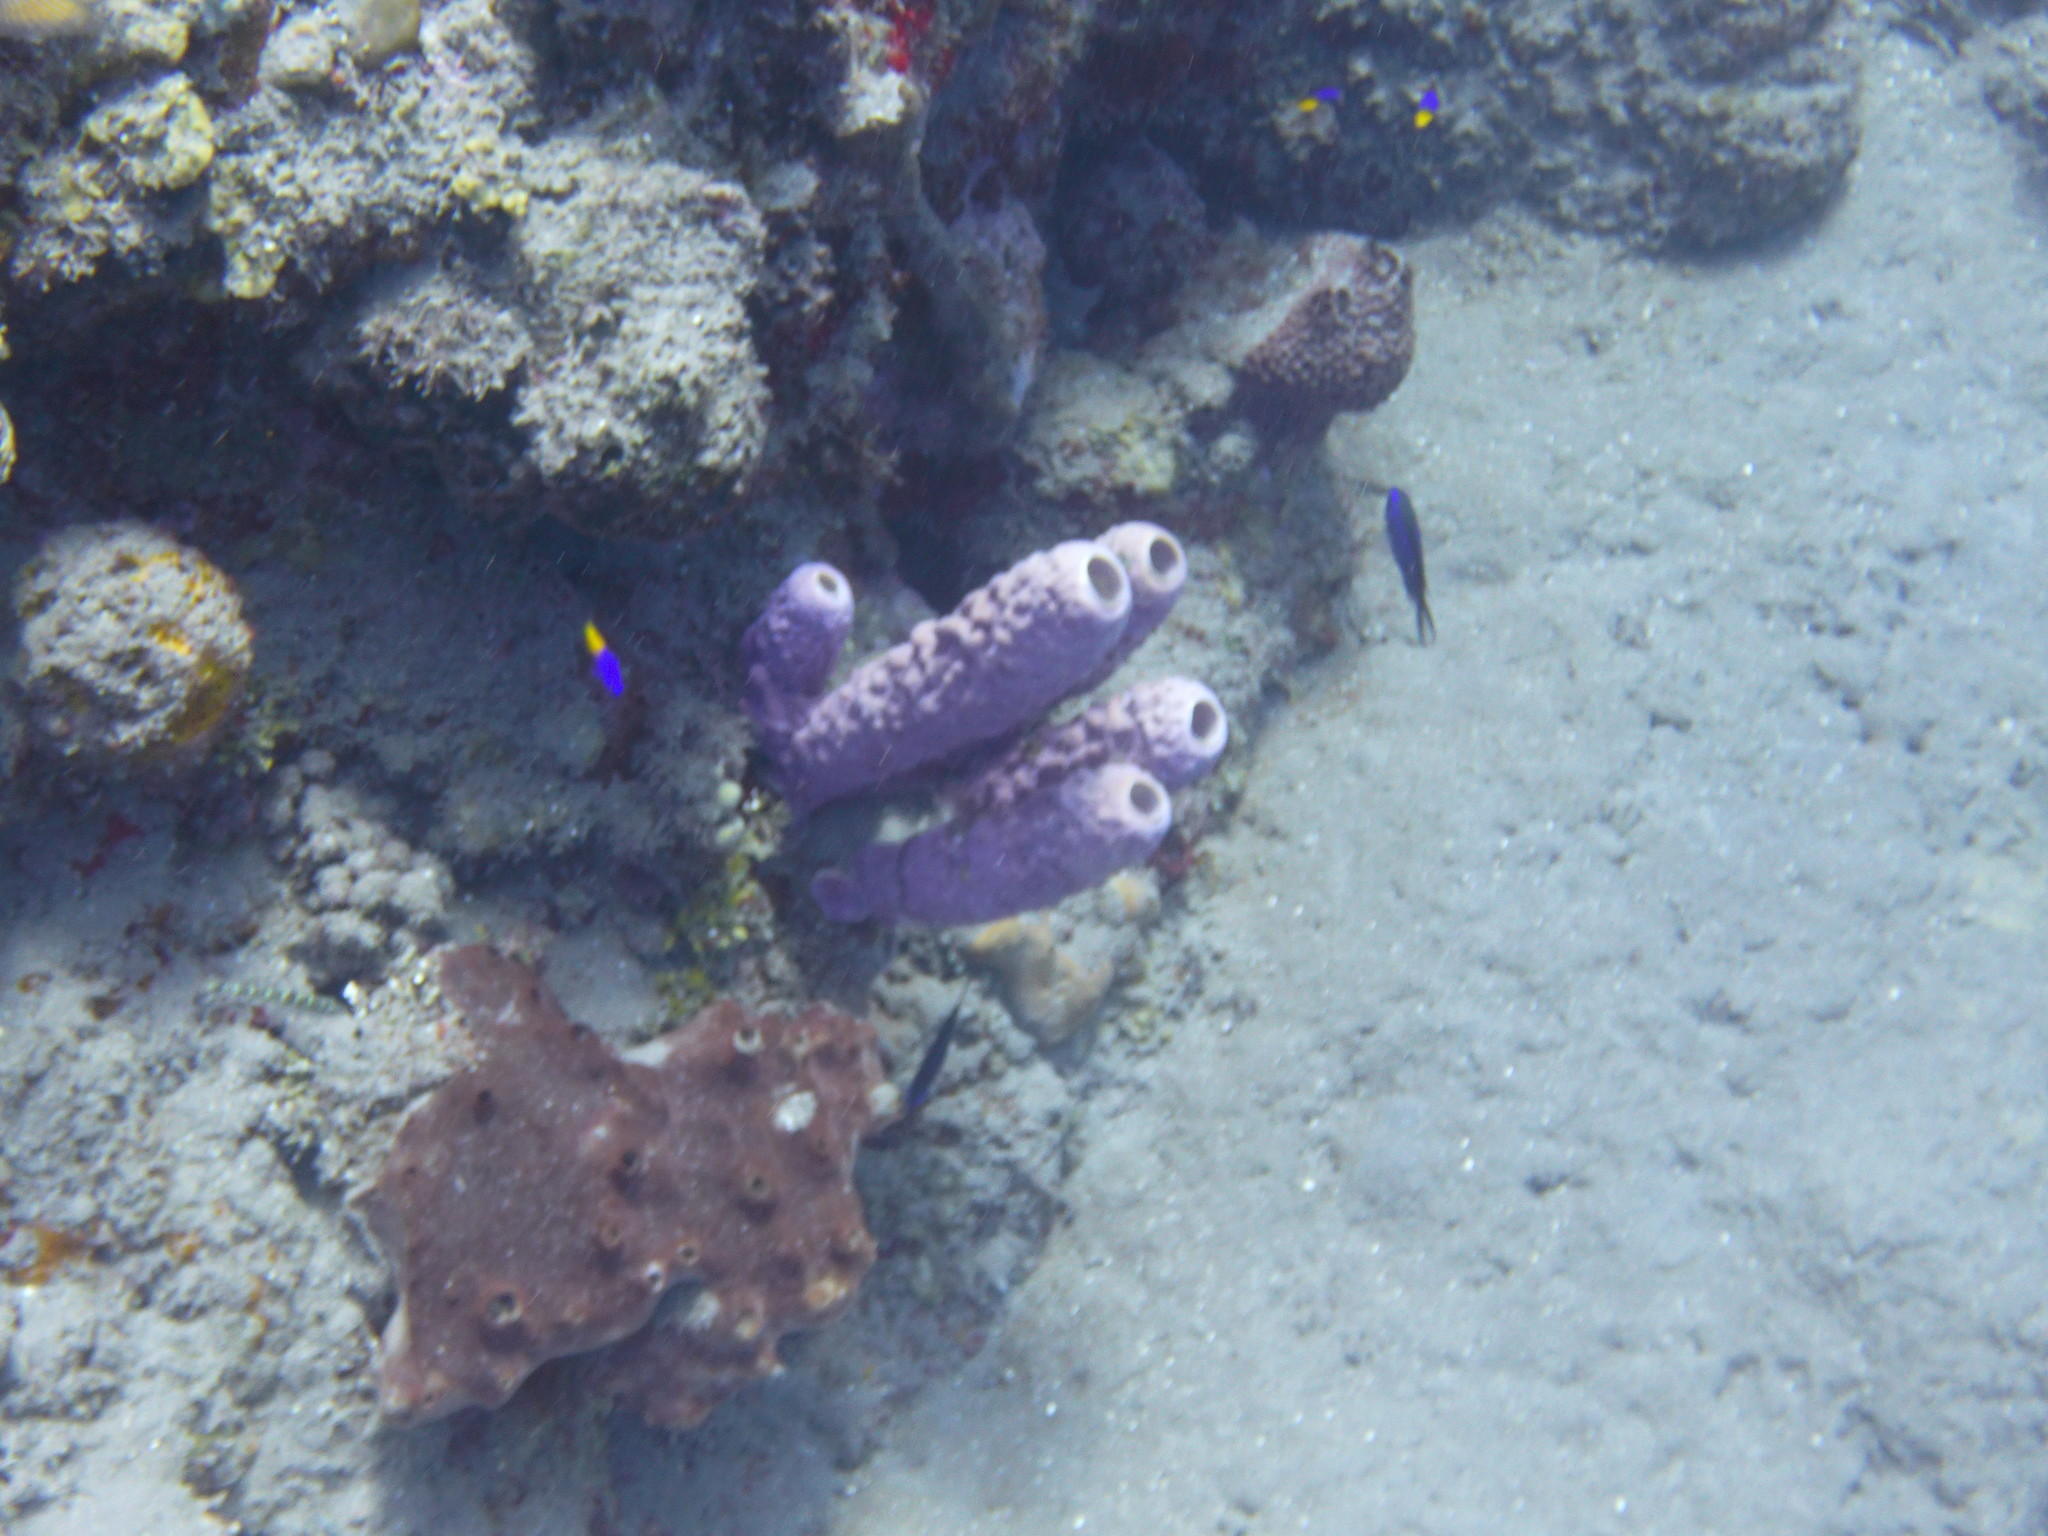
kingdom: Animalia
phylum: Porifera
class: Demospongiae
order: Verongiida
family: Aplysinidae
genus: Aplysina
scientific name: Aplysina archeri
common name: Stove-pipe sponge
